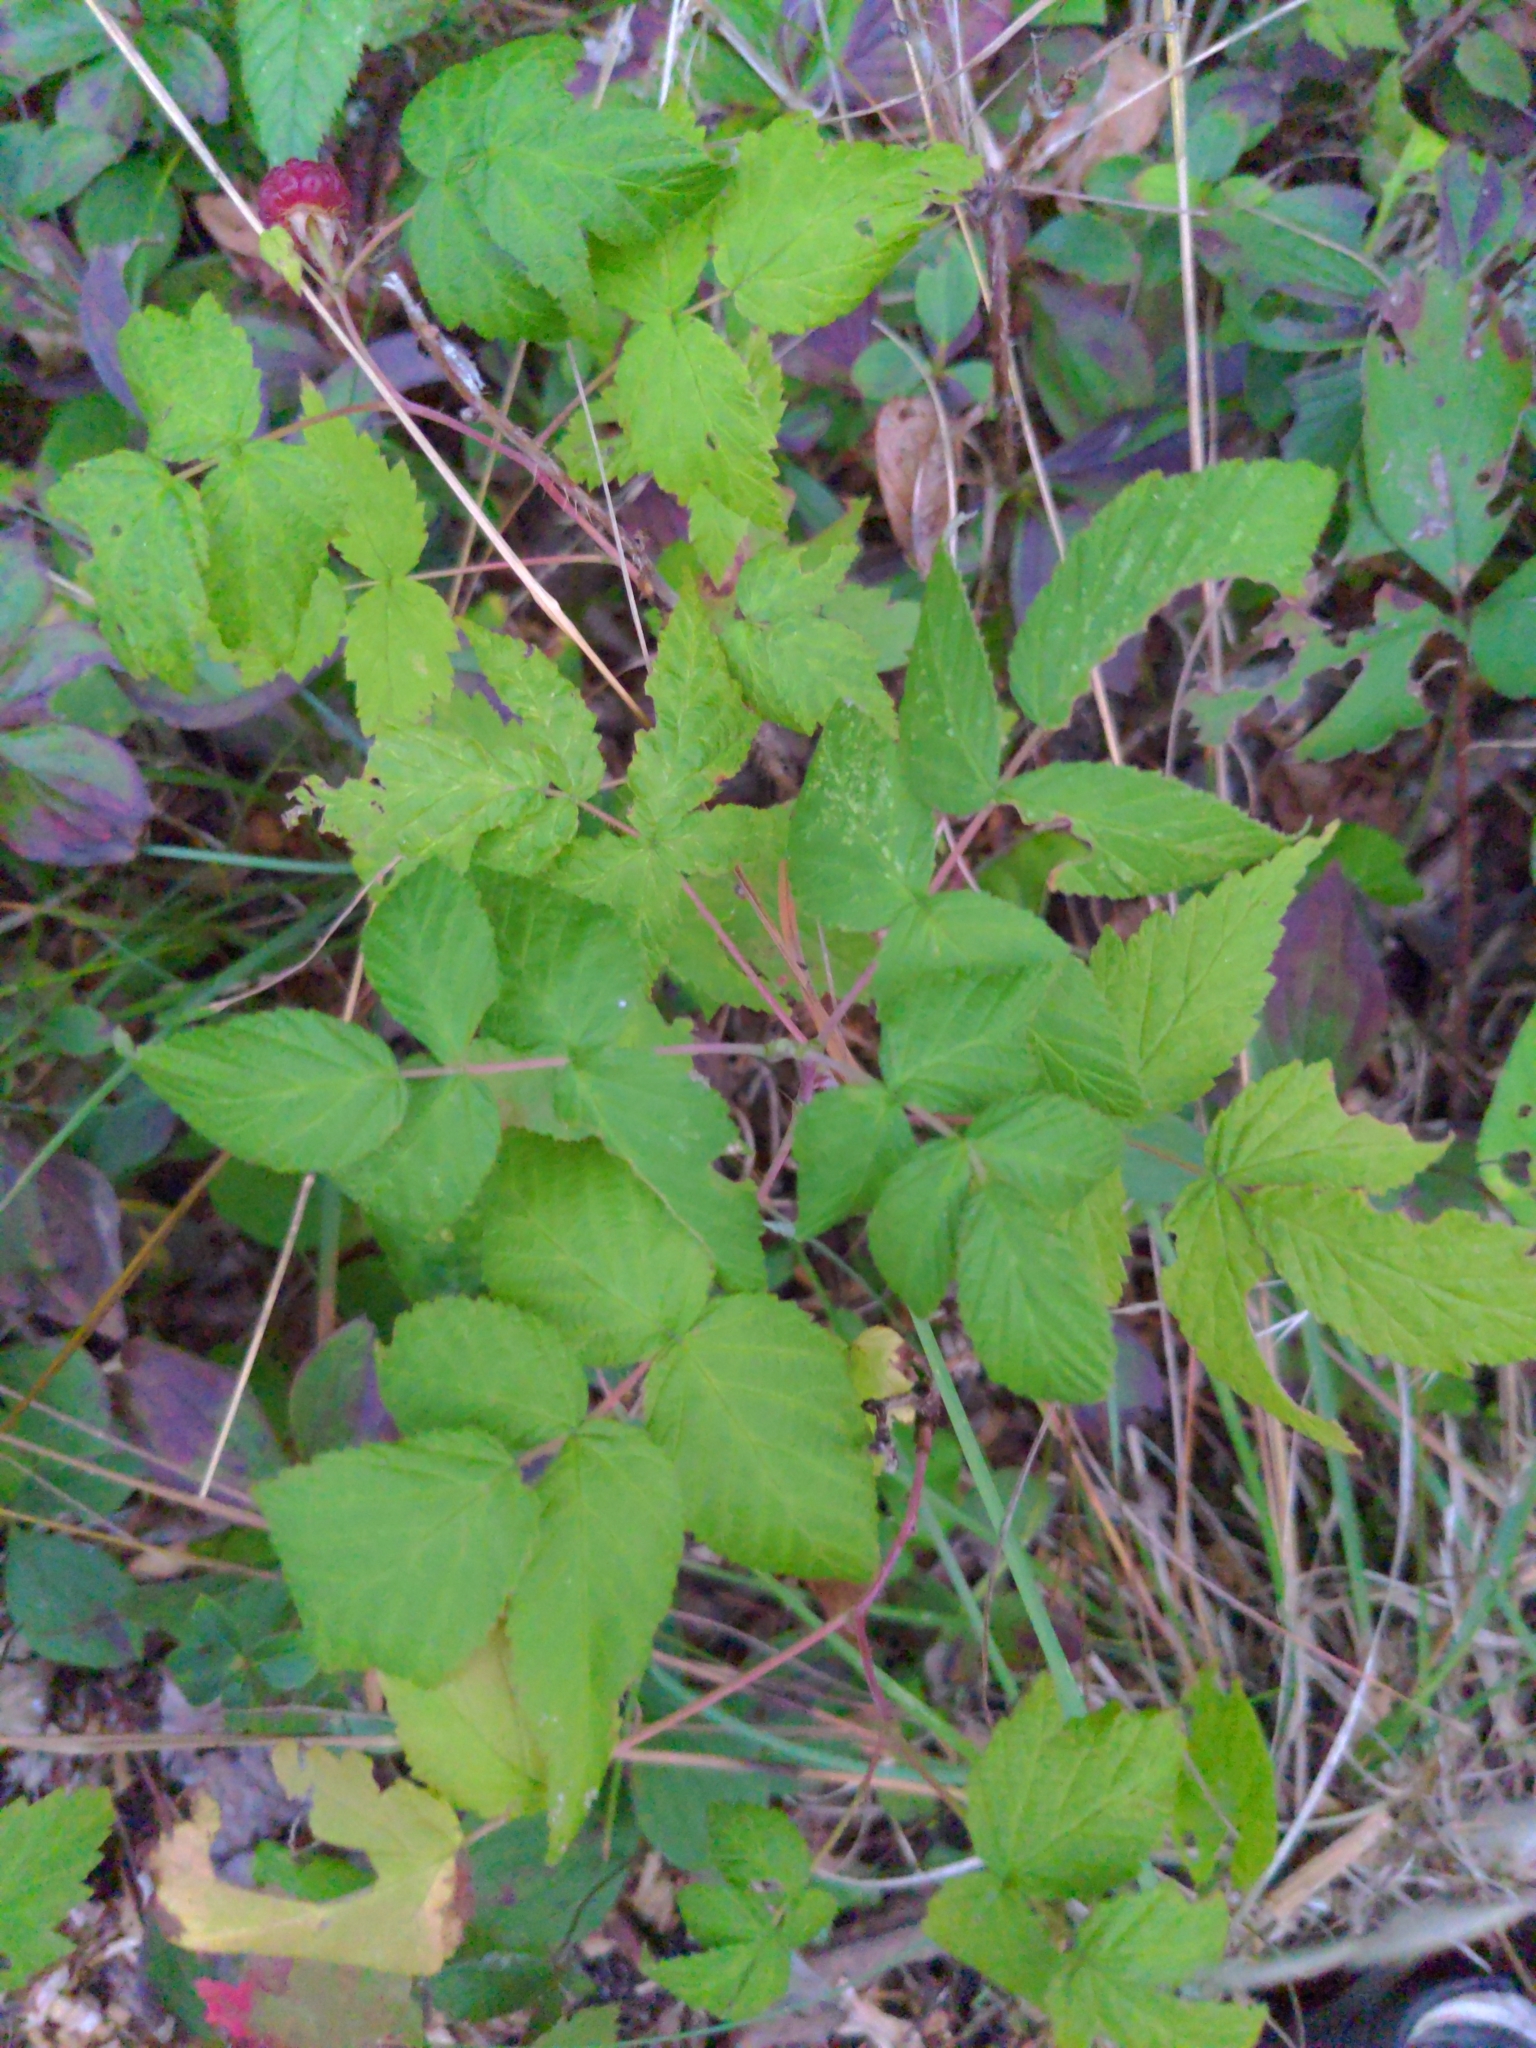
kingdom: Plantae
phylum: Tracheophyta
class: Magnoliopsida
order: Rosales
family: Rosaceae
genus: Rubus
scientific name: Rubus idaeus
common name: Raspberry
